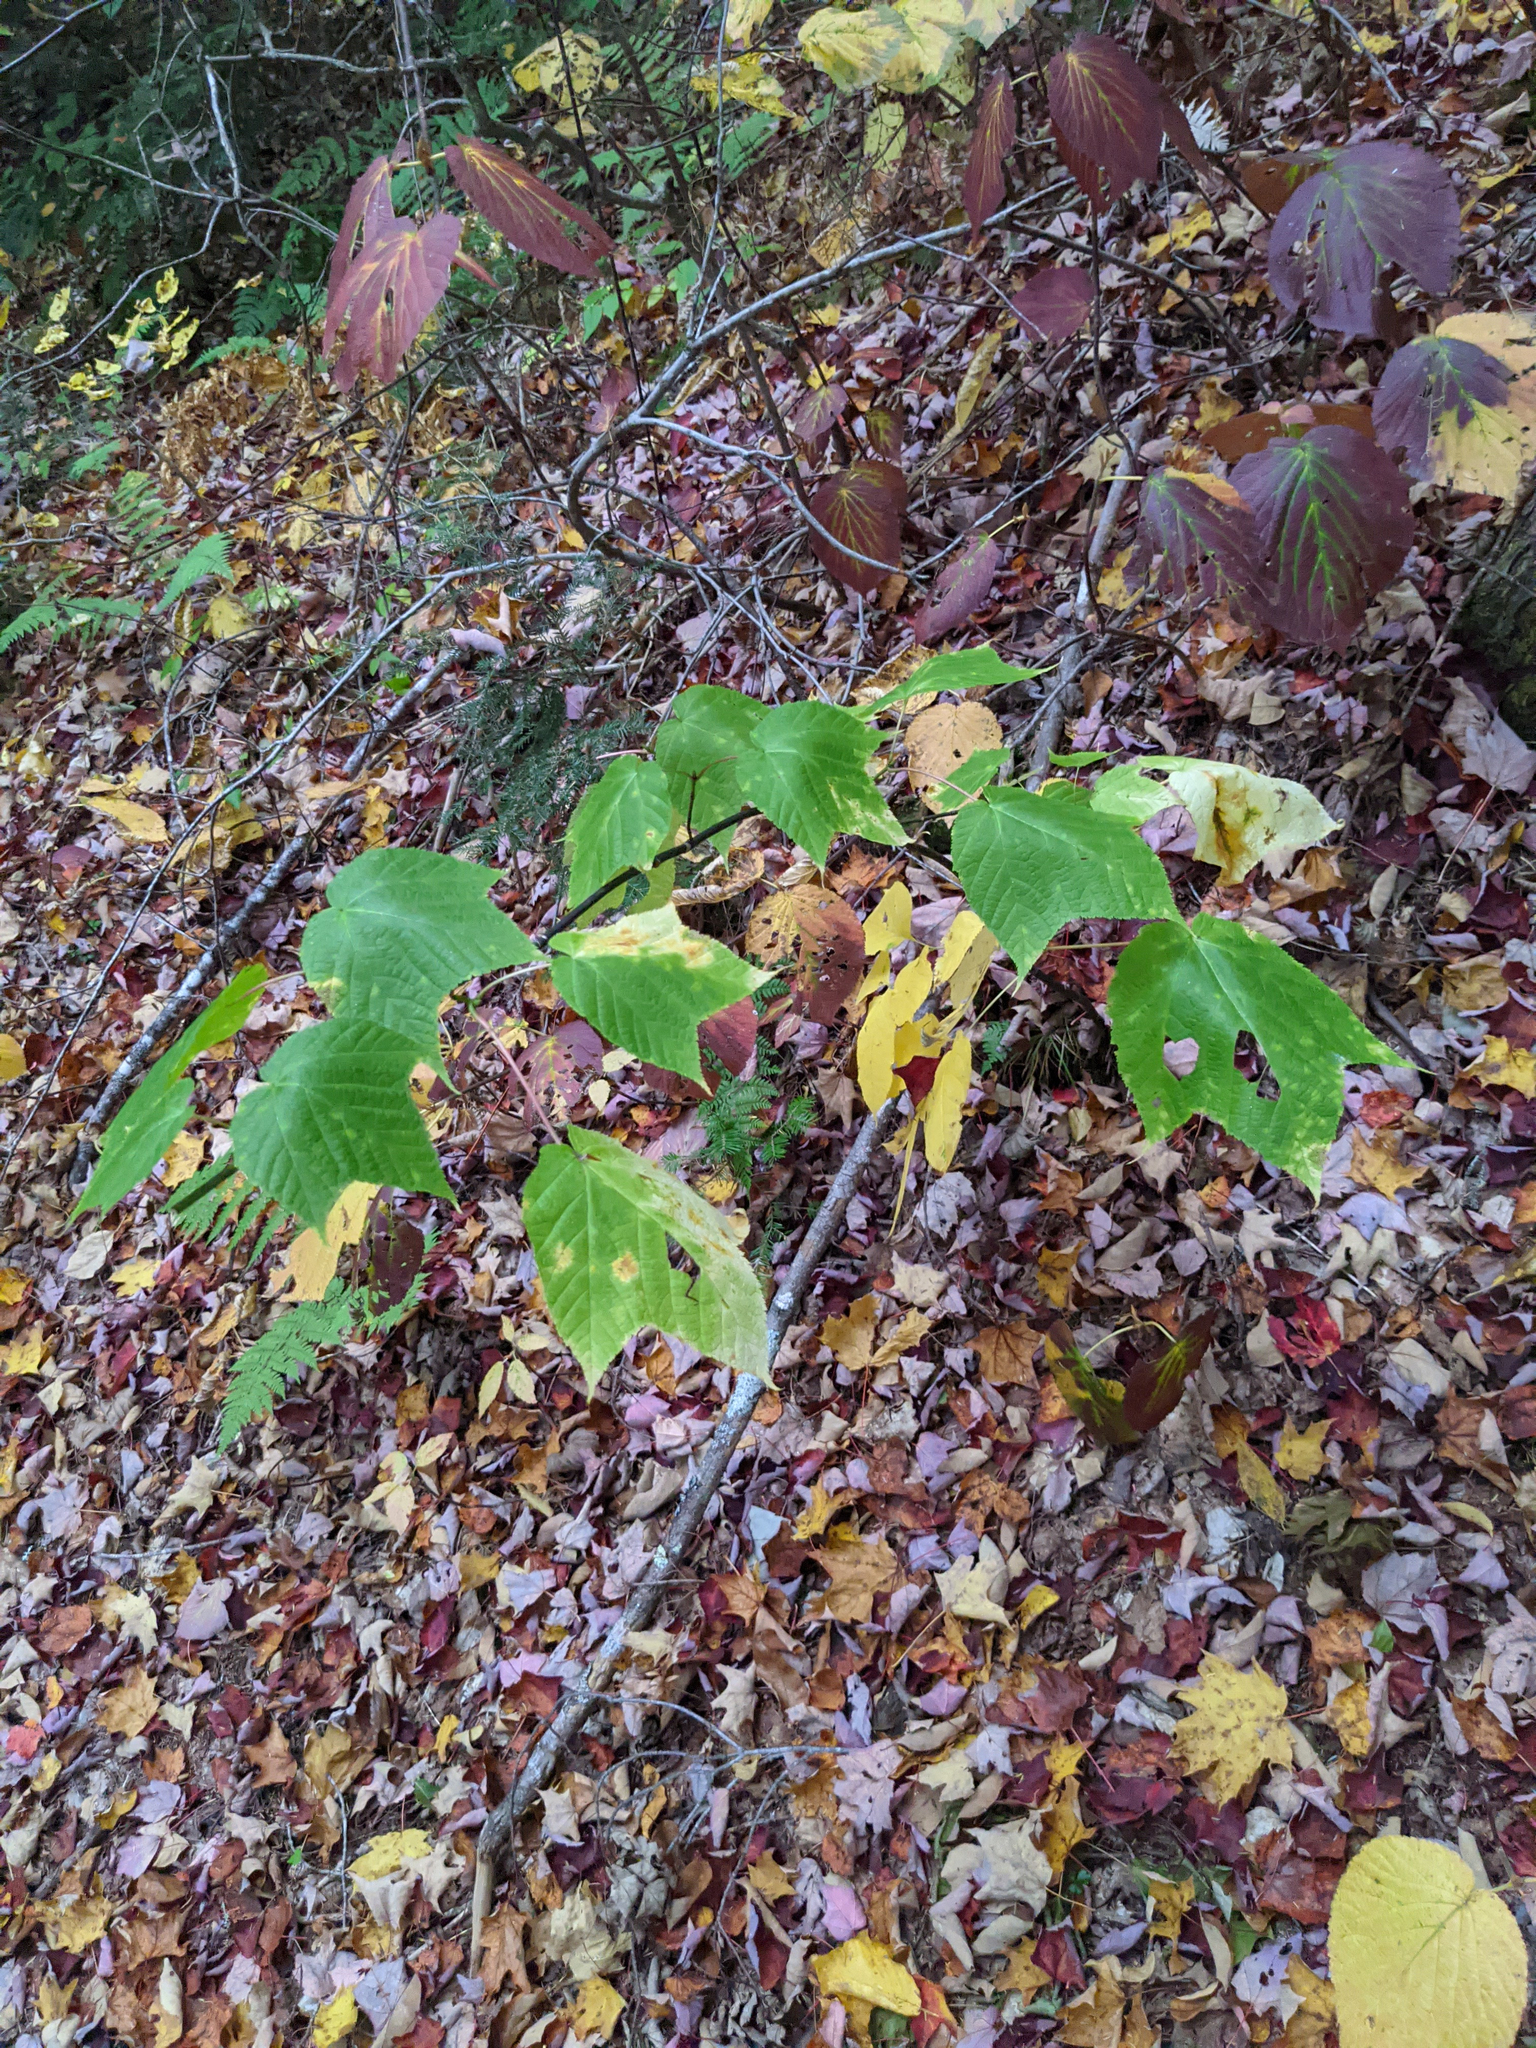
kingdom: Plantae
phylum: Tracheophyta
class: Magnoliopsida
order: Sapindales
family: Sapindaceae
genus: Acer
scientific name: Acer pensylvanicum
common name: Moosewood
